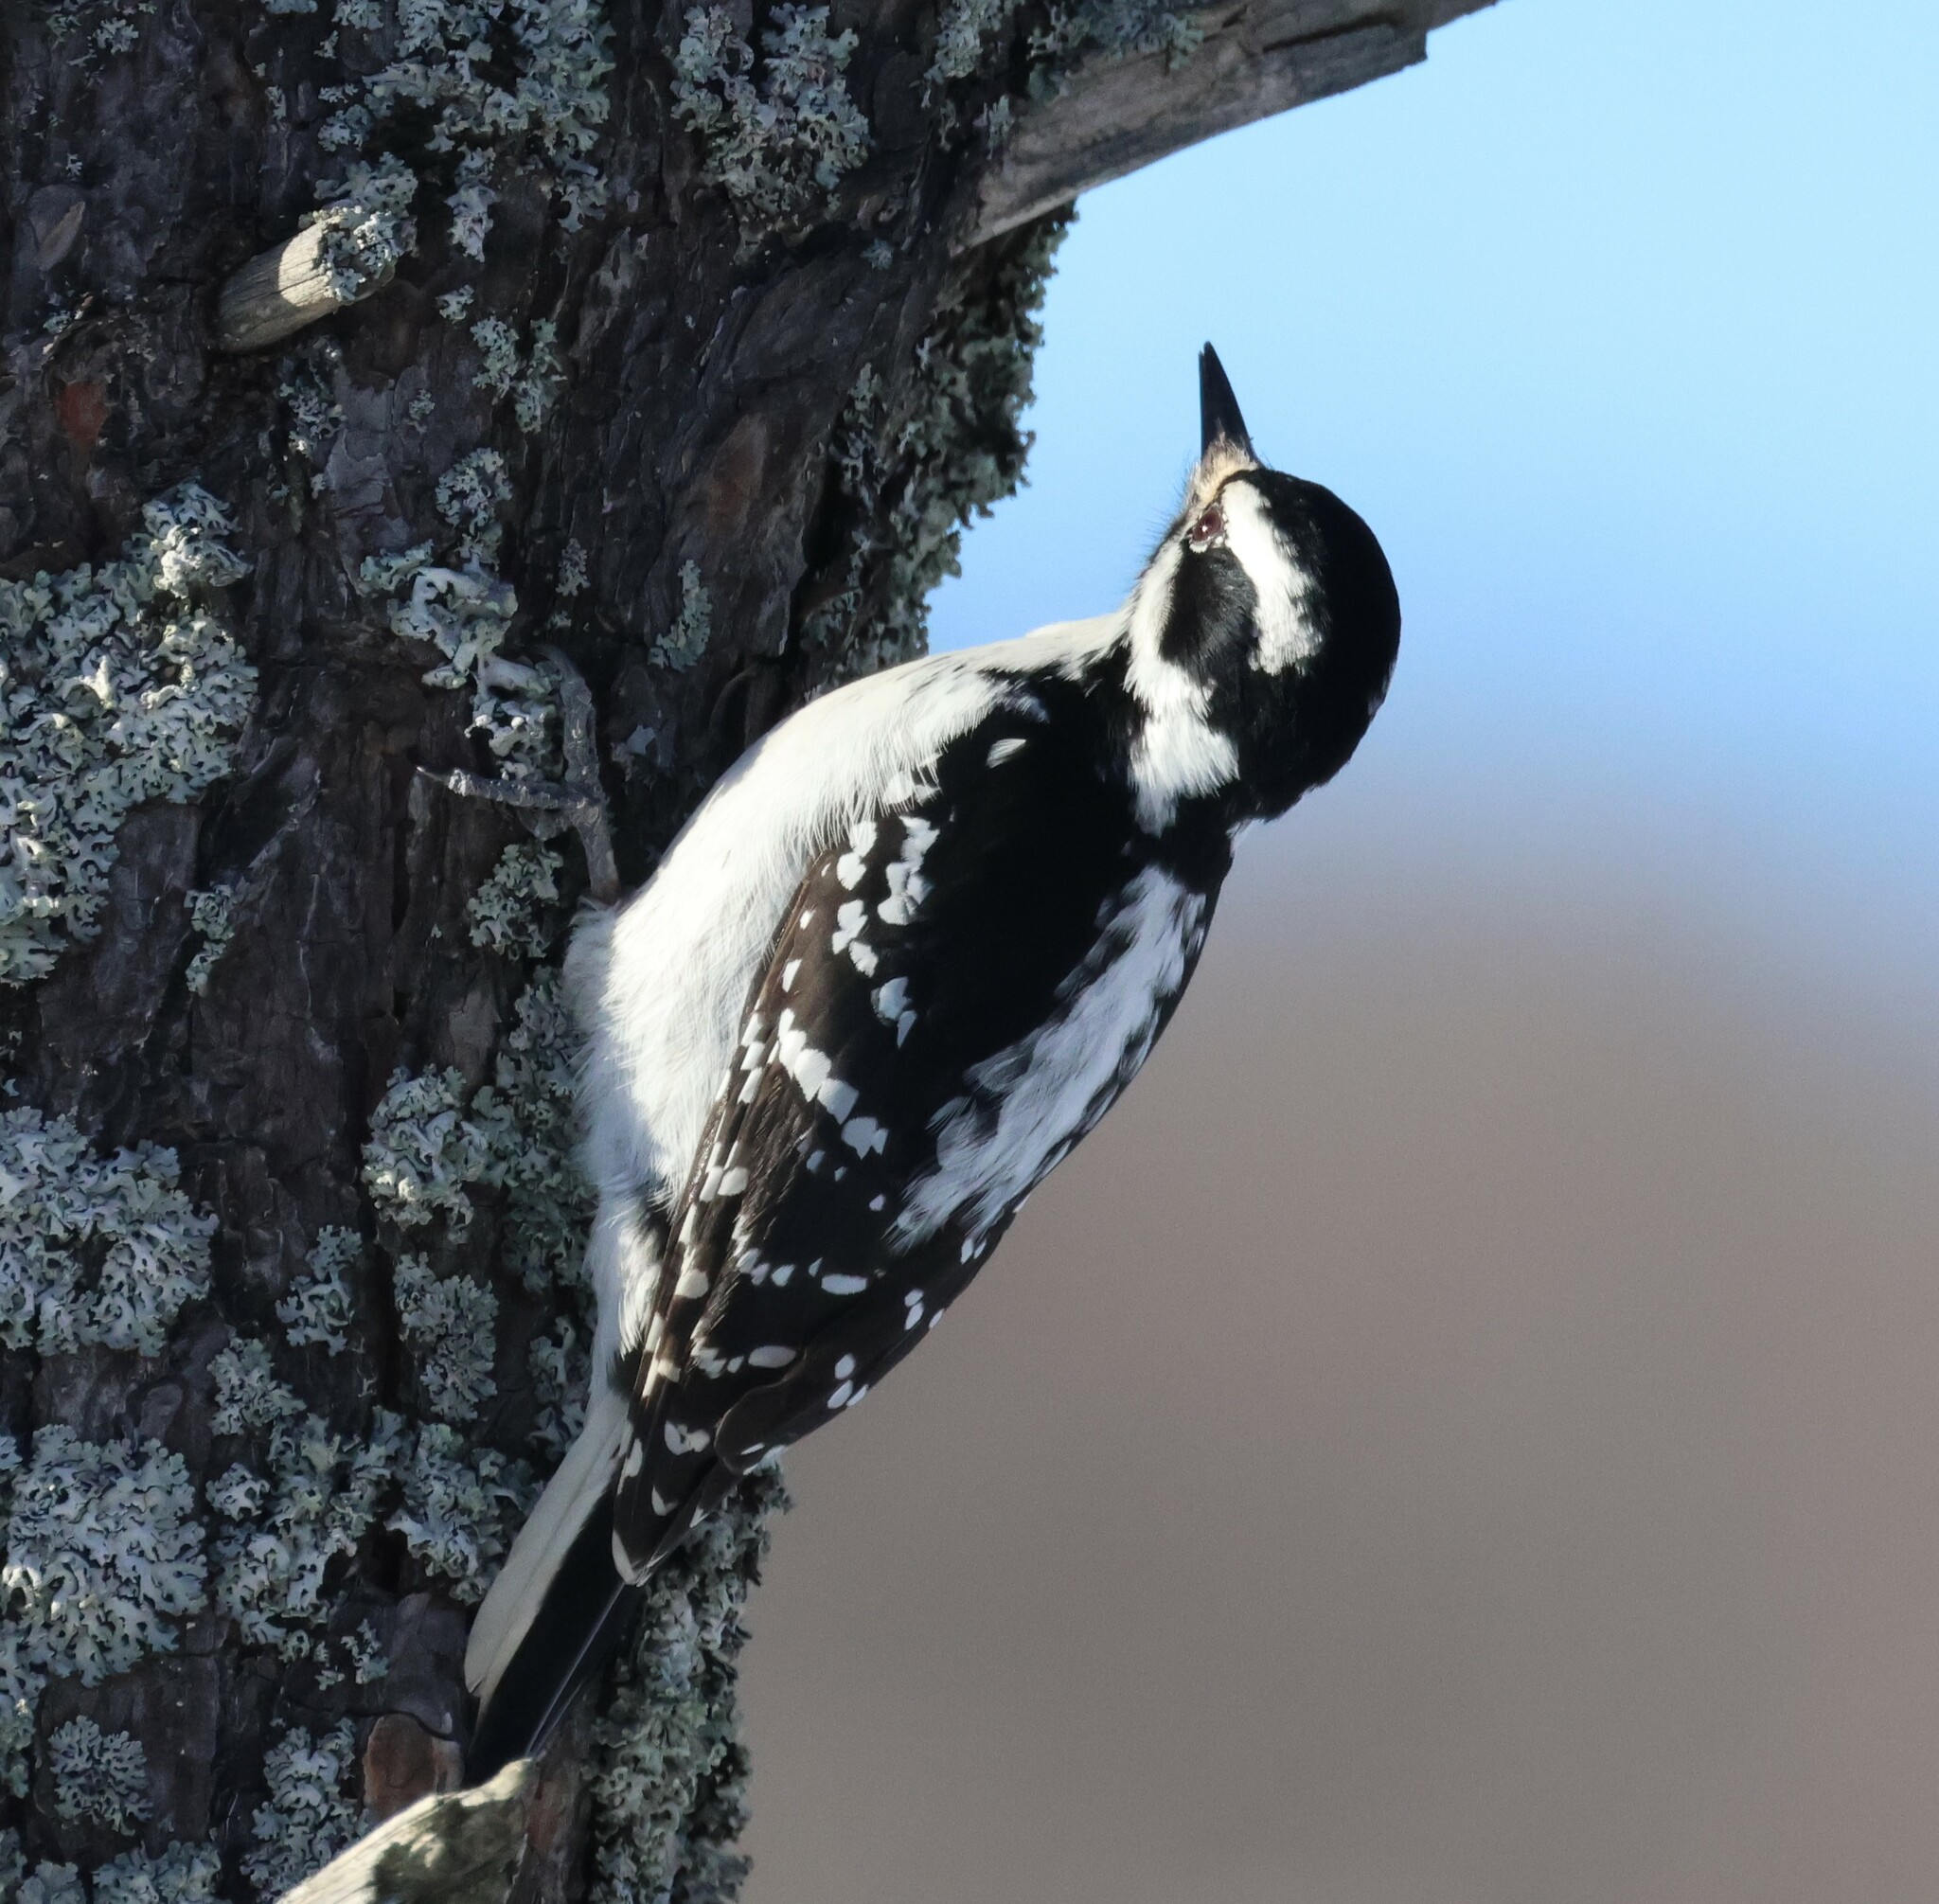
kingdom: Animalia
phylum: Chordata
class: Aves
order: Piciformes
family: Picidae
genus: Leuconotopicus
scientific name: Leuconotopicus villosus
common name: Hairy woodpecker
